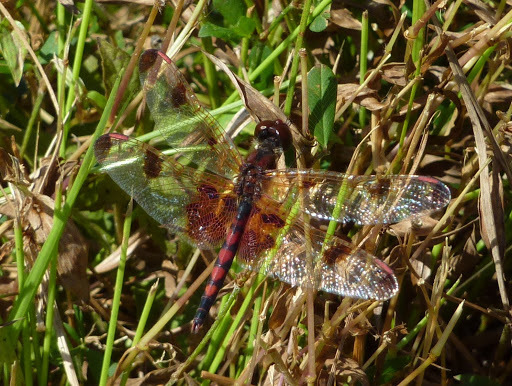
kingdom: Animalia
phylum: Arthropoda
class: Insecta
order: Odonata
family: Libellulidae
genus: Celithemis
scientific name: Celithemis elisa
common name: Calico pennant
